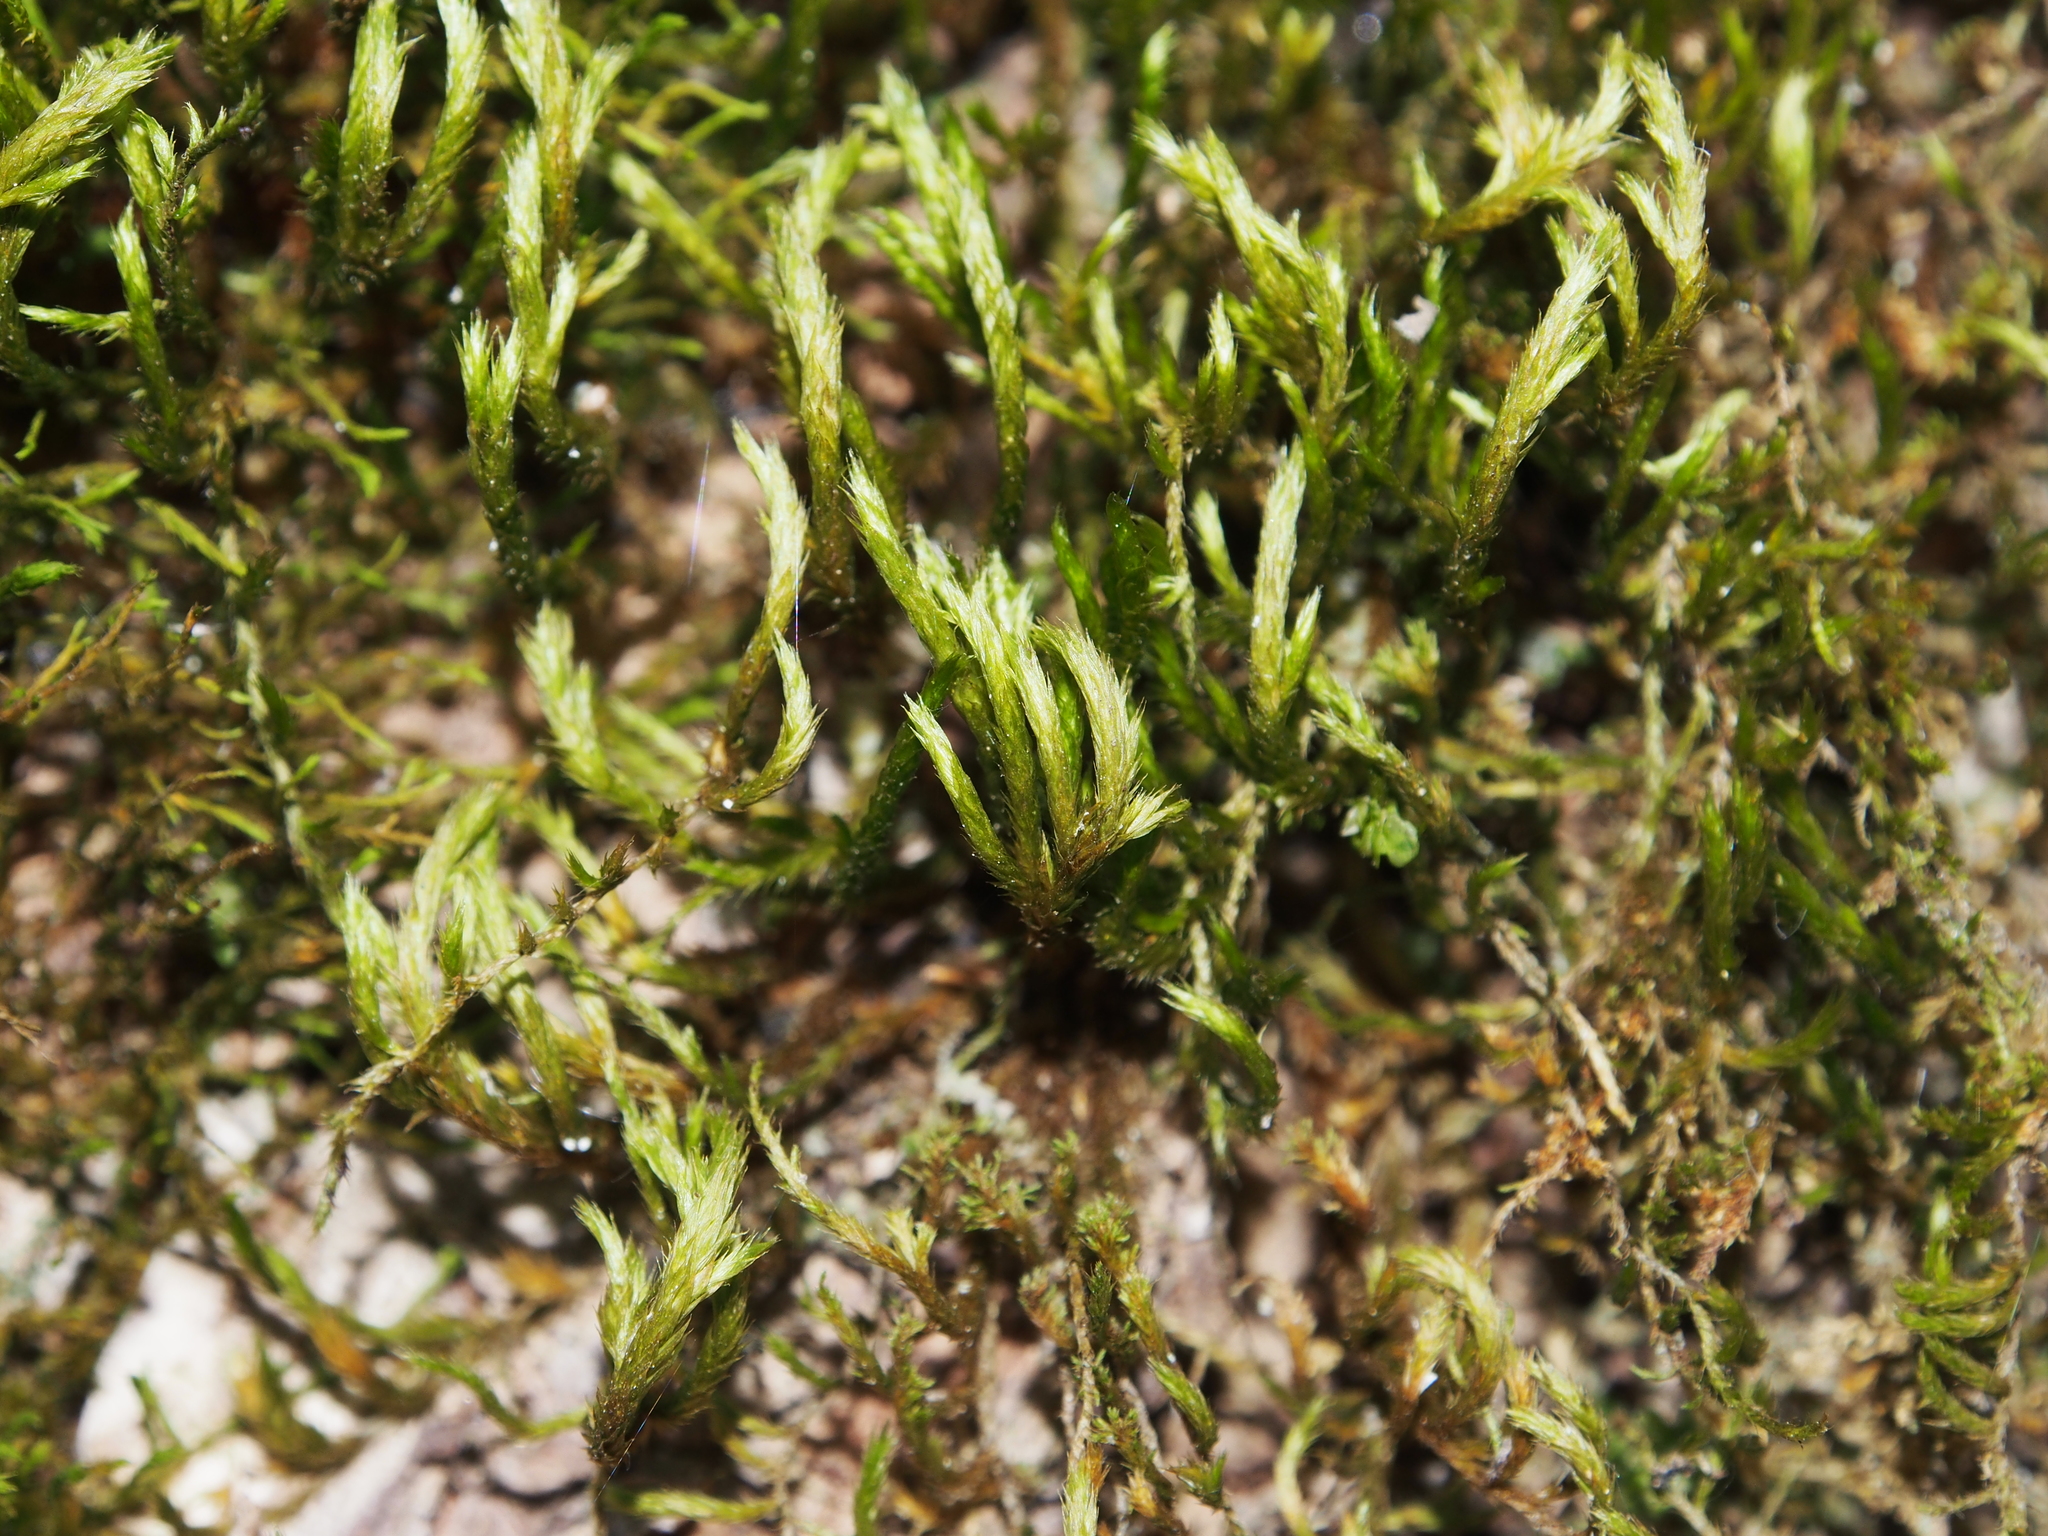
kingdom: Plantae
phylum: Bryophyta
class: Bryopsida
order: Hypnales
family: Leucodontaceae
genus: Leucodon
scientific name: Leucodon sciuroides
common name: Squirrel-tail moss
